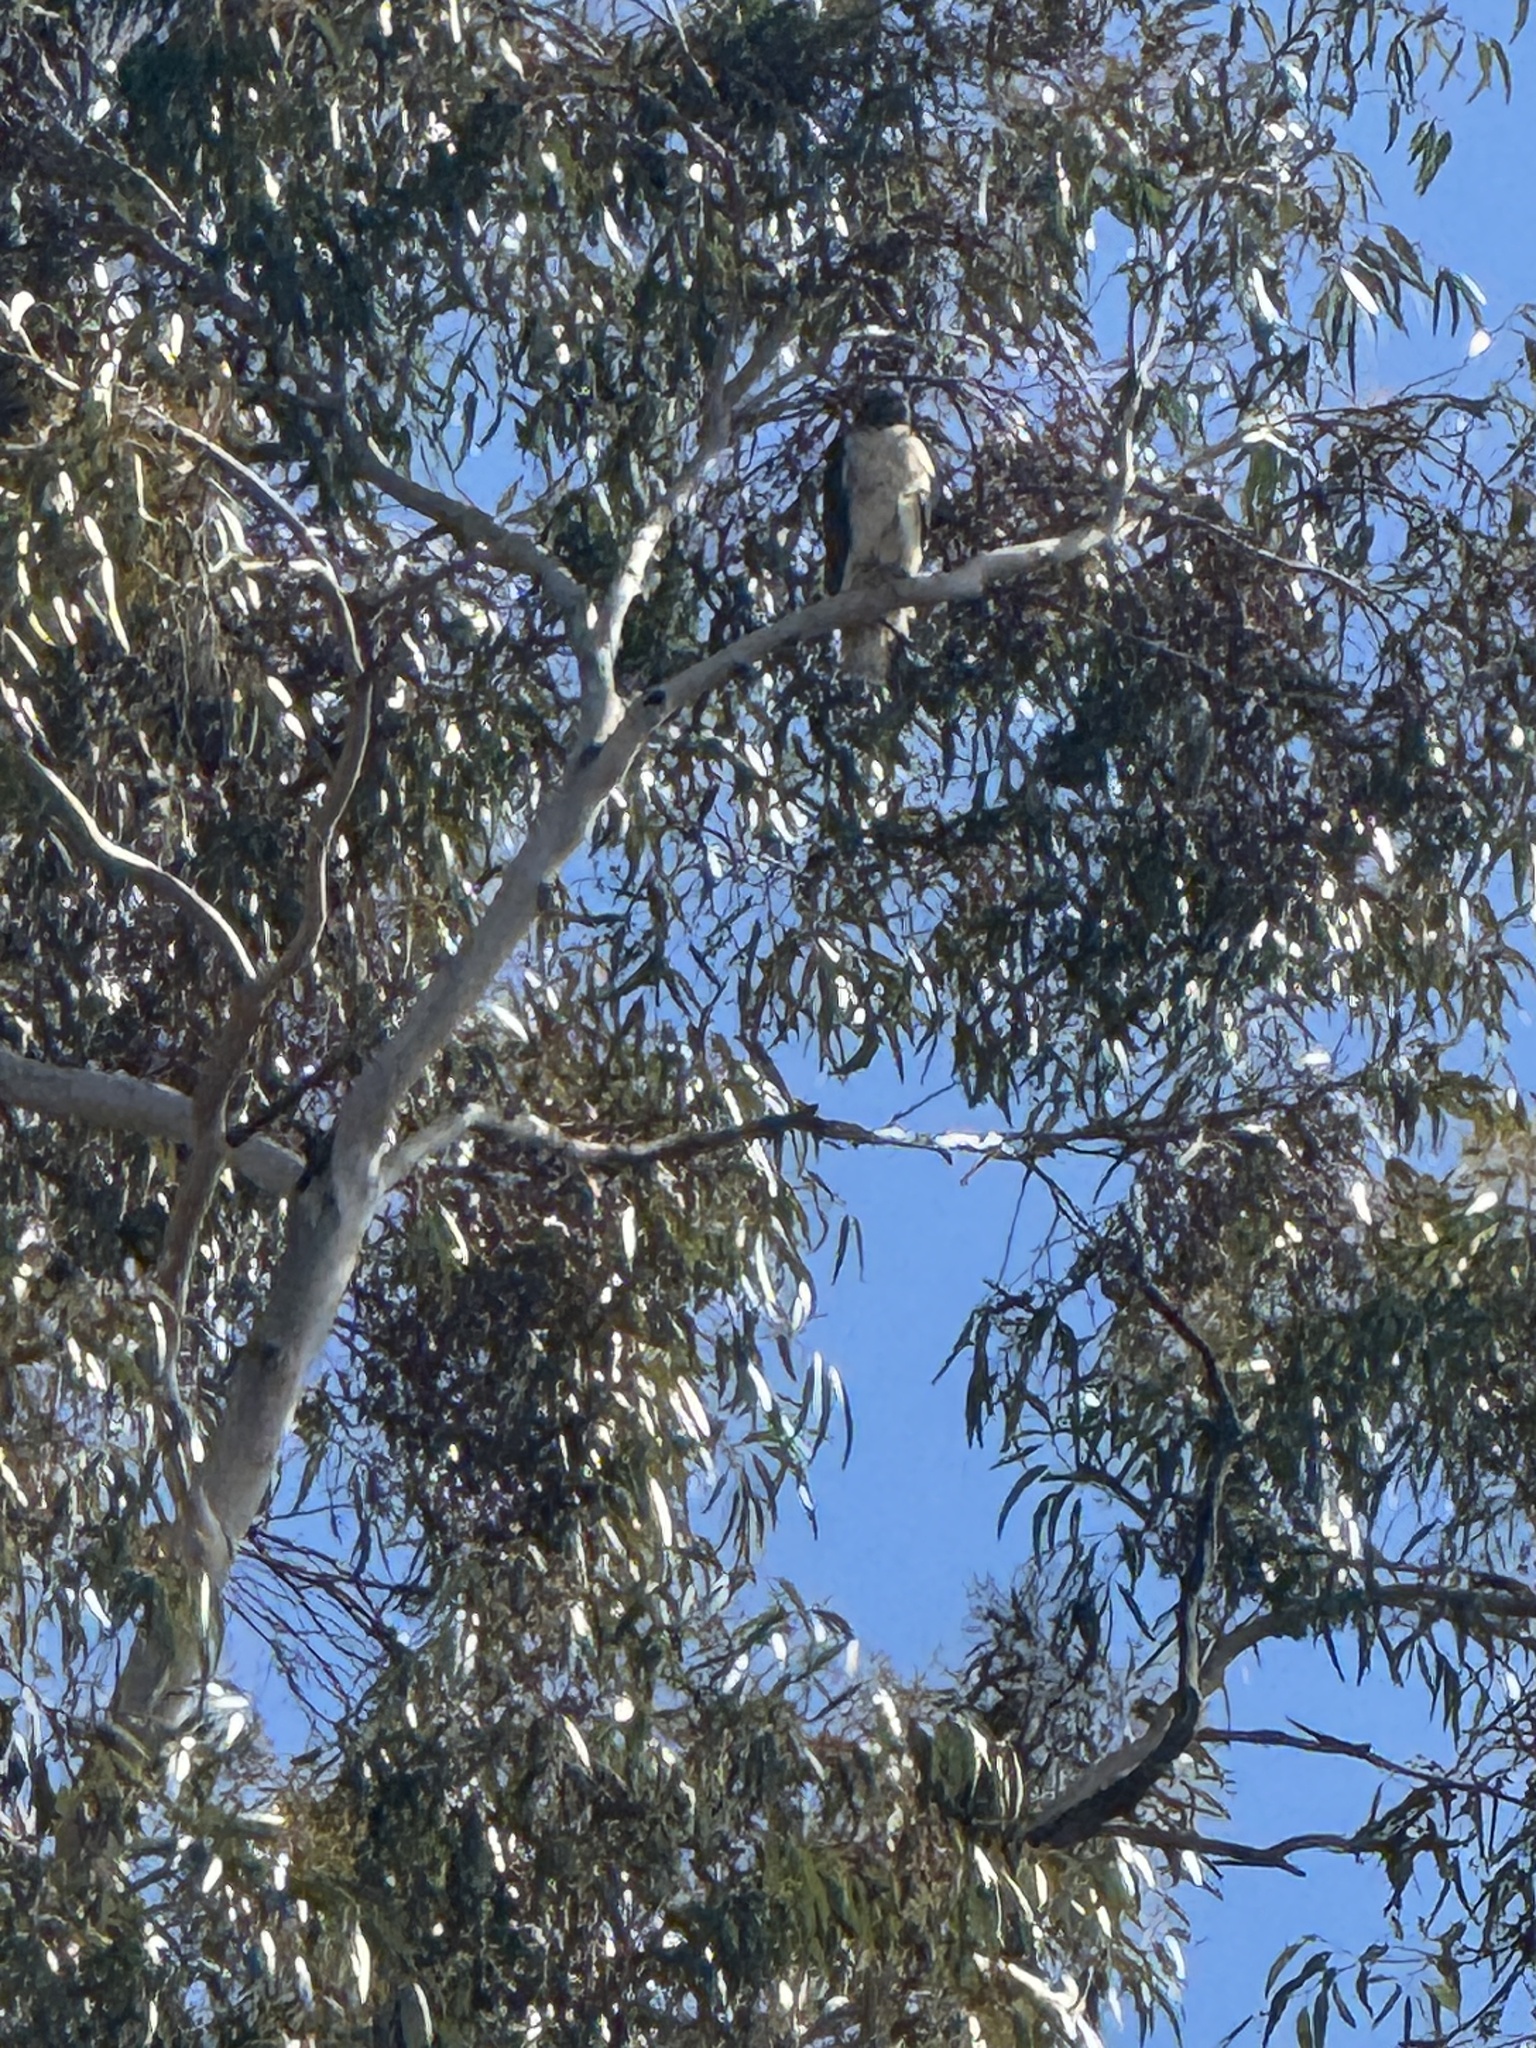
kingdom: Animalia
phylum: Chordata
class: Aves
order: Accipitriformes
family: Accipitridae
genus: Buteo
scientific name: Buteo jamaicensis
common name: Red-tailed hawk
